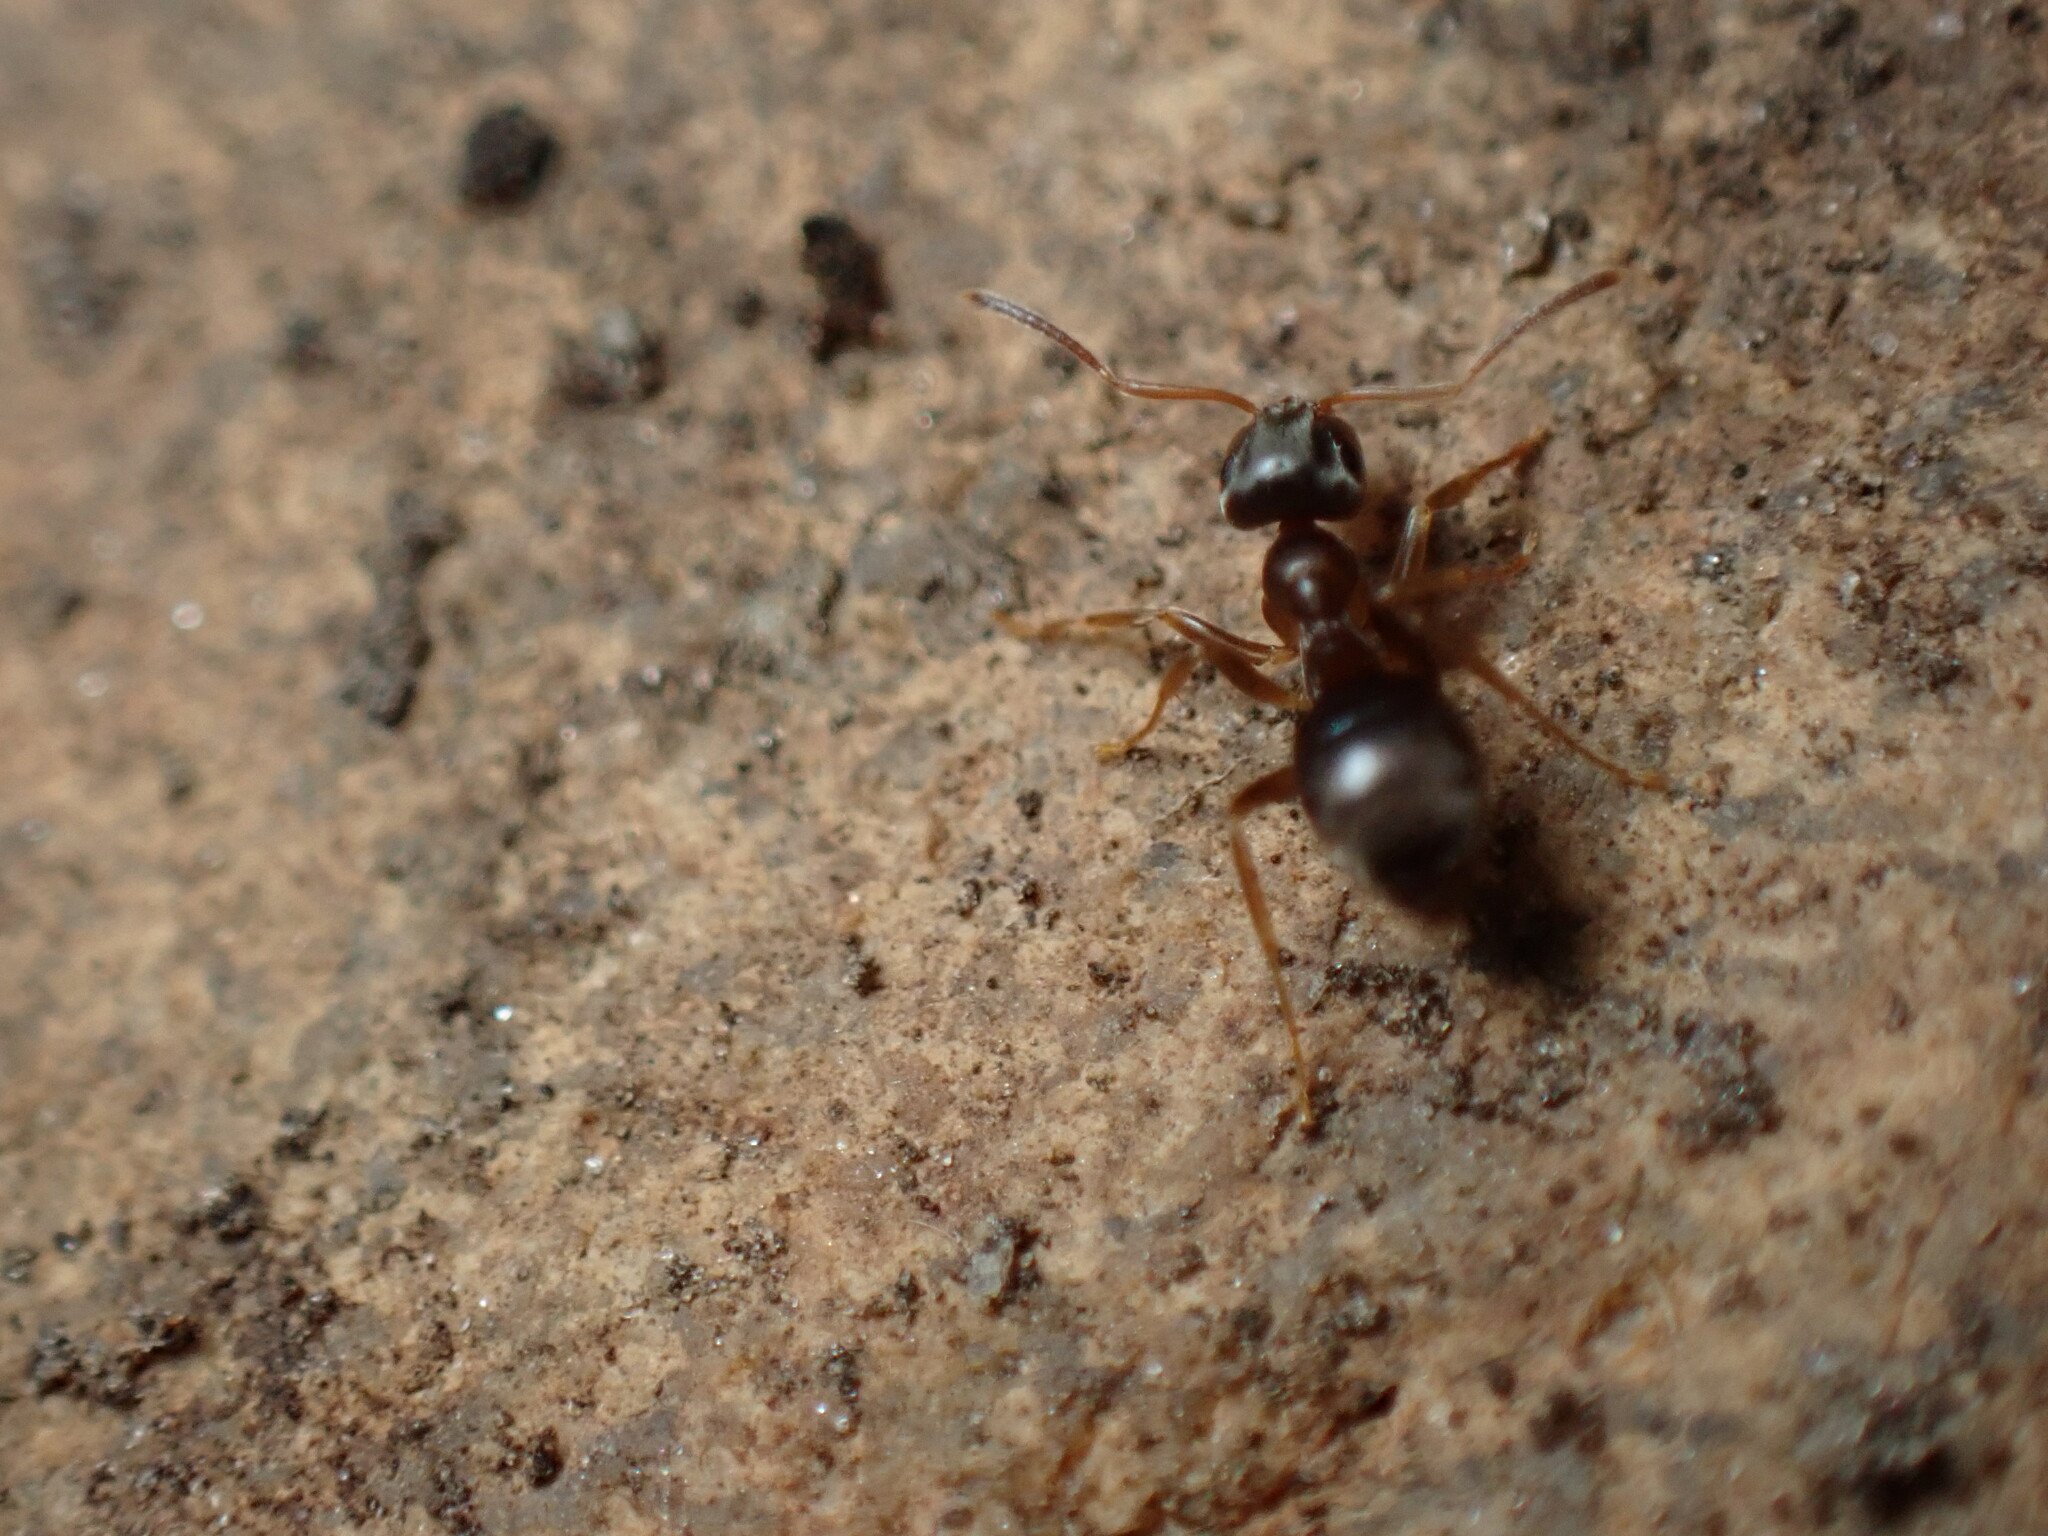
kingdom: Animalia
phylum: Arthropoda
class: Insecta
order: Hymenoptera
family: Formicidae
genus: Lasius
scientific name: Lasius americanus
